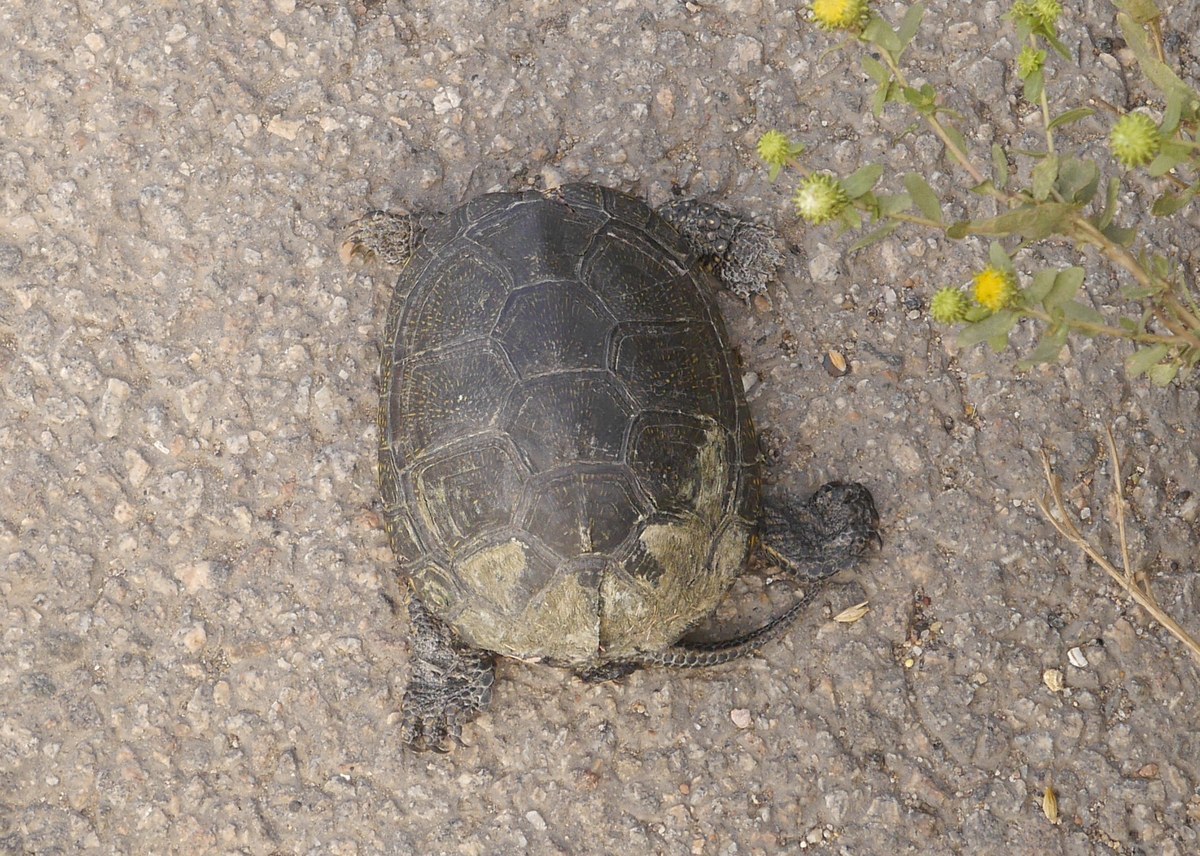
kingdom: Animalia
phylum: Chordata
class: Testudines
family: Emydidae
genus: Emys
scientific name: Emys orbicularis
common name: European pond turtle
